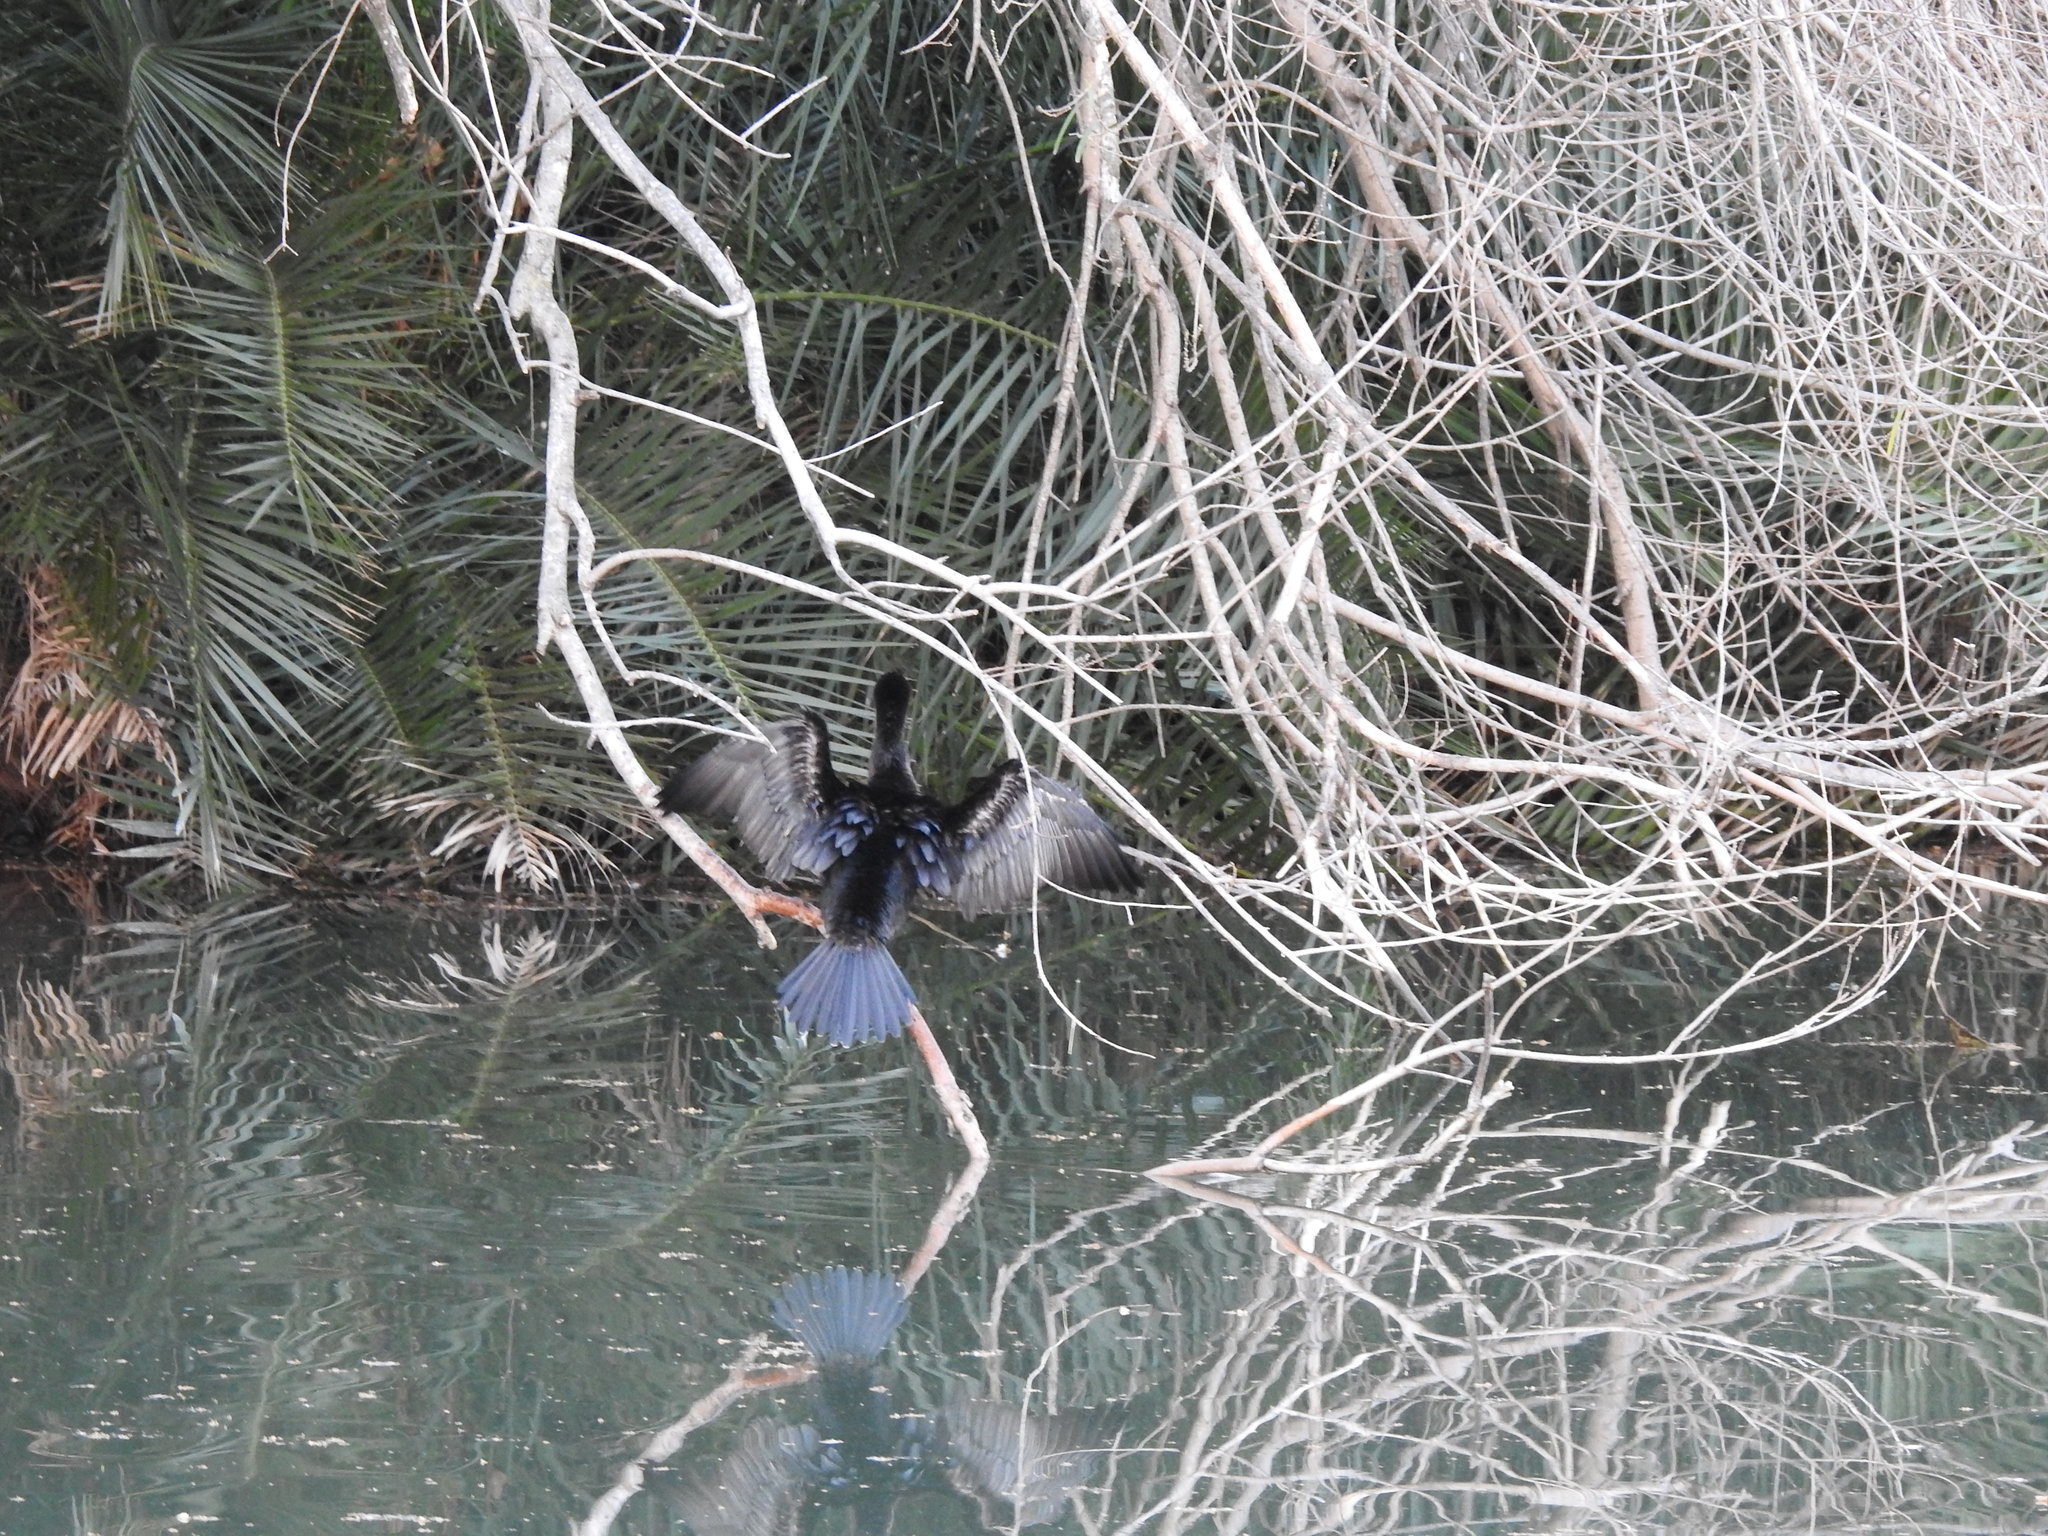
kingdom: Animalia
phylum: Chordata
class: Aves
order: Suliformes
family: Phalacrocoracidae
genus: Phalacrocorax
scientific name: Phalacrocorax brasilianus
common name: Neotropic cormorant
